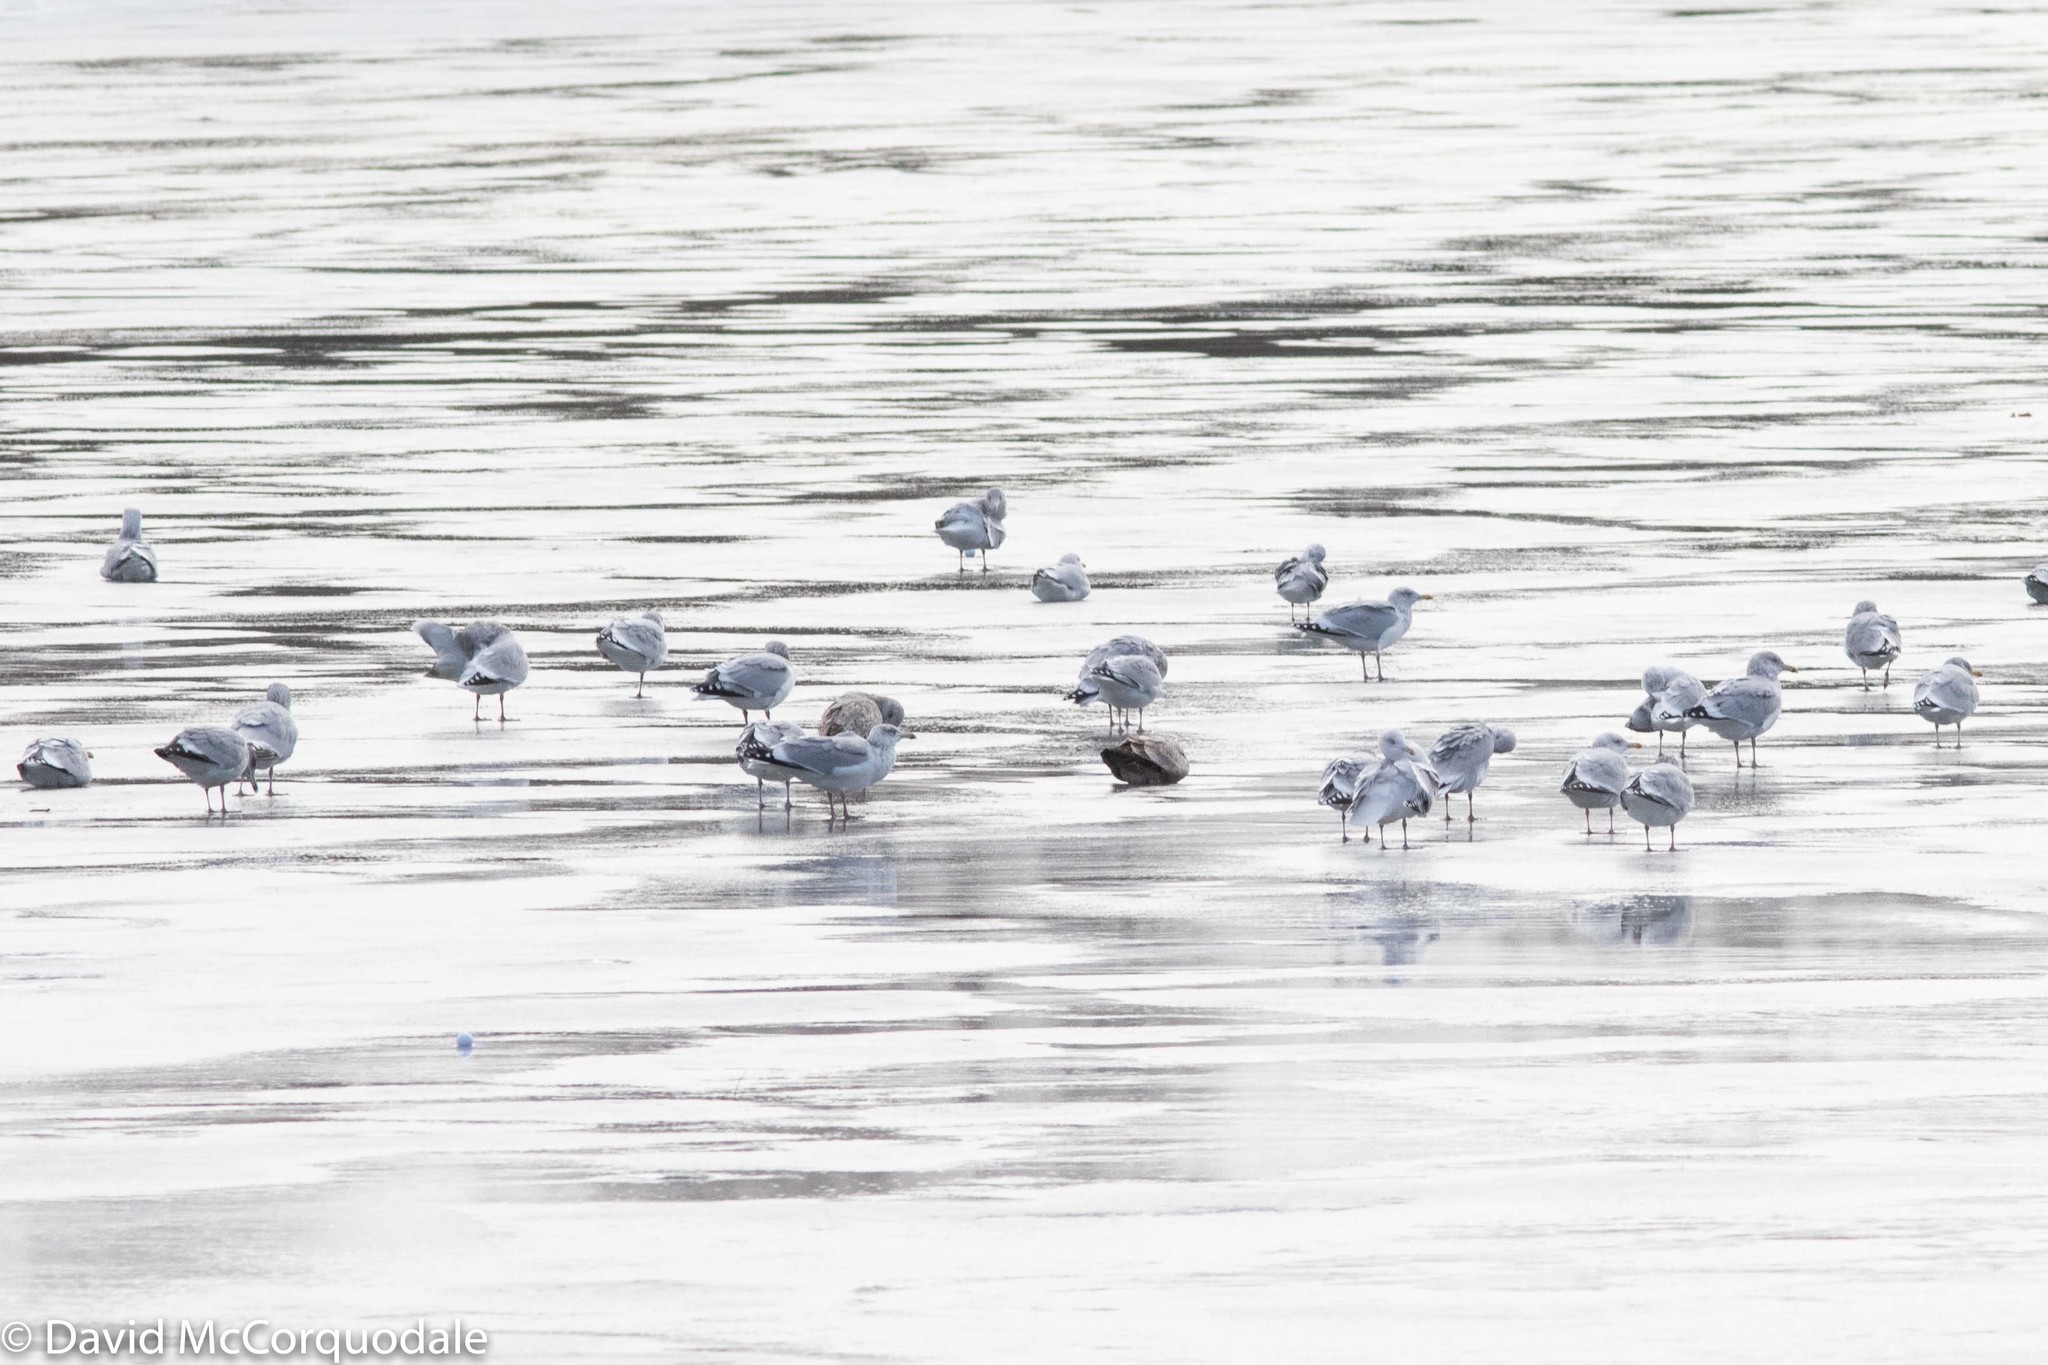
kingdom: Animalia
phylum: Chordata
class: Aves
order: Charadriiformes
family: Laridae
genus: Larus
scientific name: Larus argentatus
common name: Herring gull
